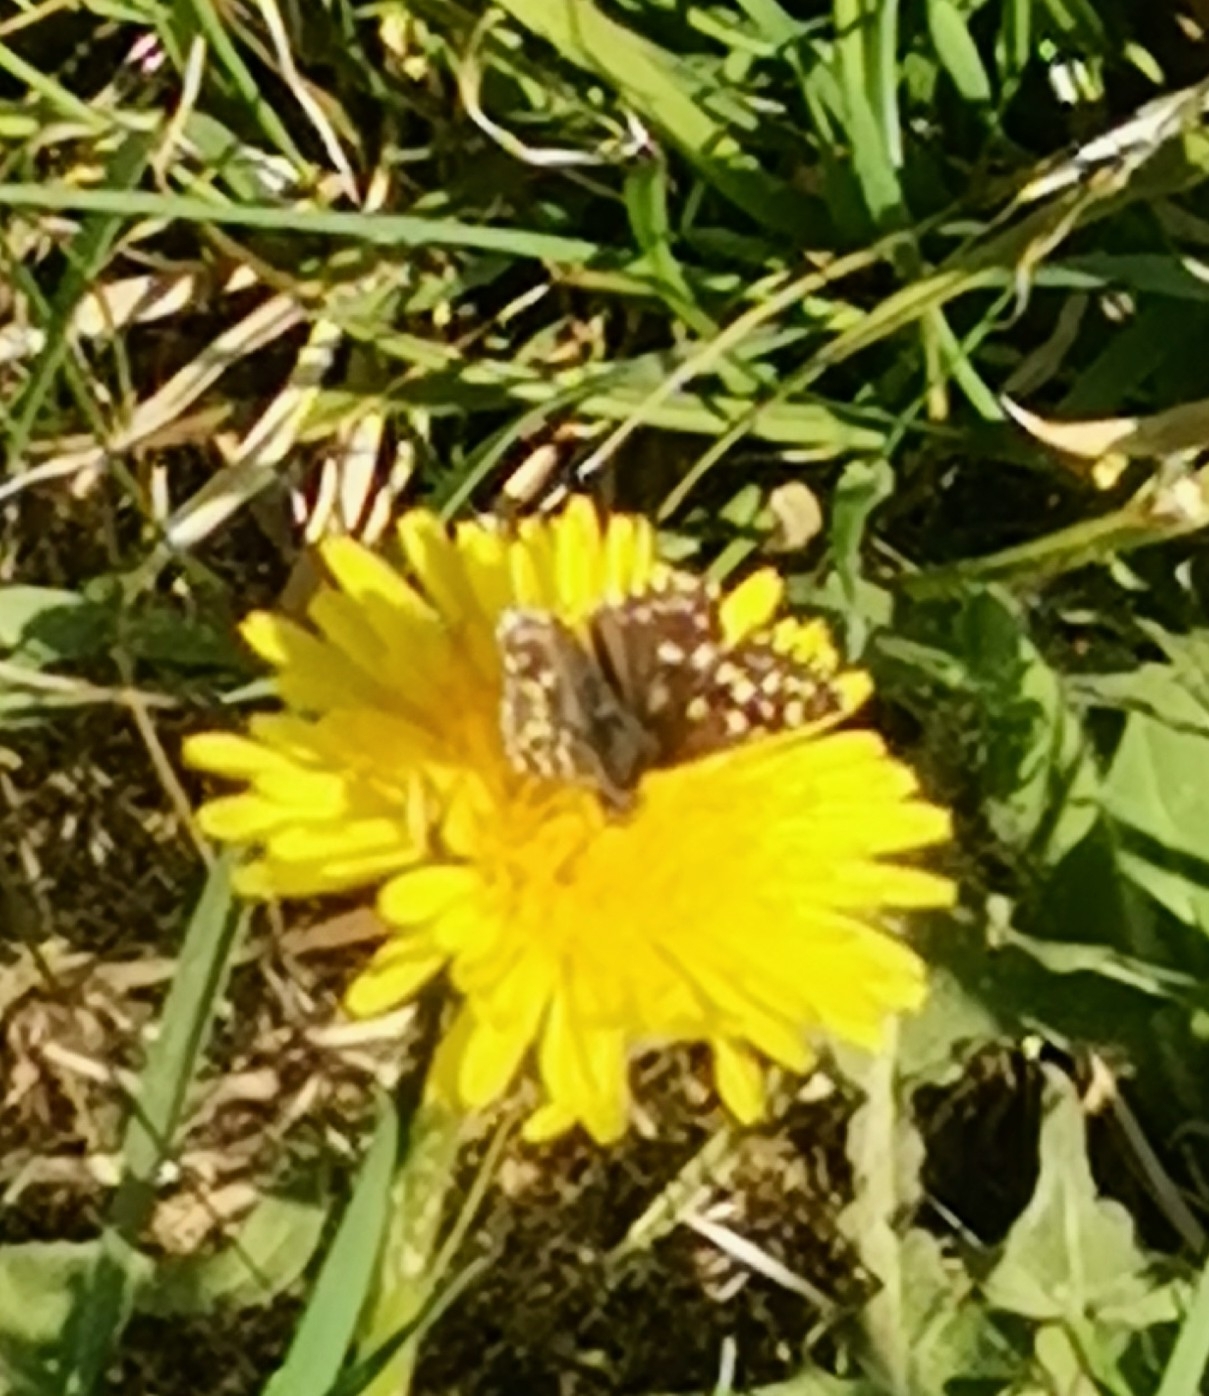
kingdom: Animalia
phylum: Arthropoda
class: Insecta
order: Lepidoptera
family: Hesperiidae
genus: Pyrgus
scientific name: Pyrgus malvae
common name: Grizzled skipper
